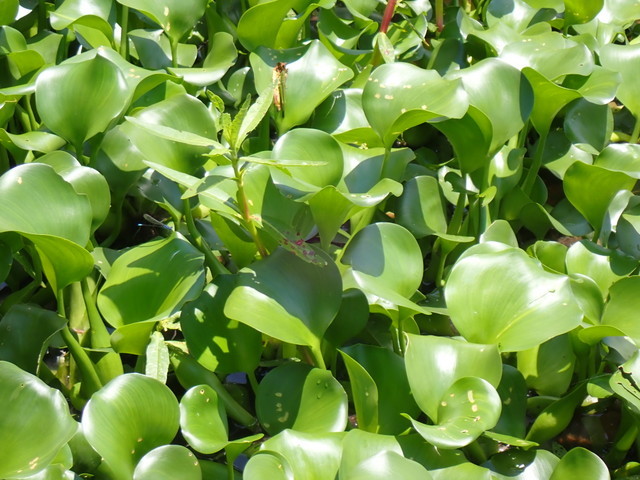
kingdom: Plantae
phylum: Tracheophyta
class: Liliopsida
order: Commelinales
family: Pontederiaceae
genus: Pontederia
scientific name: Pontederia crassipes
